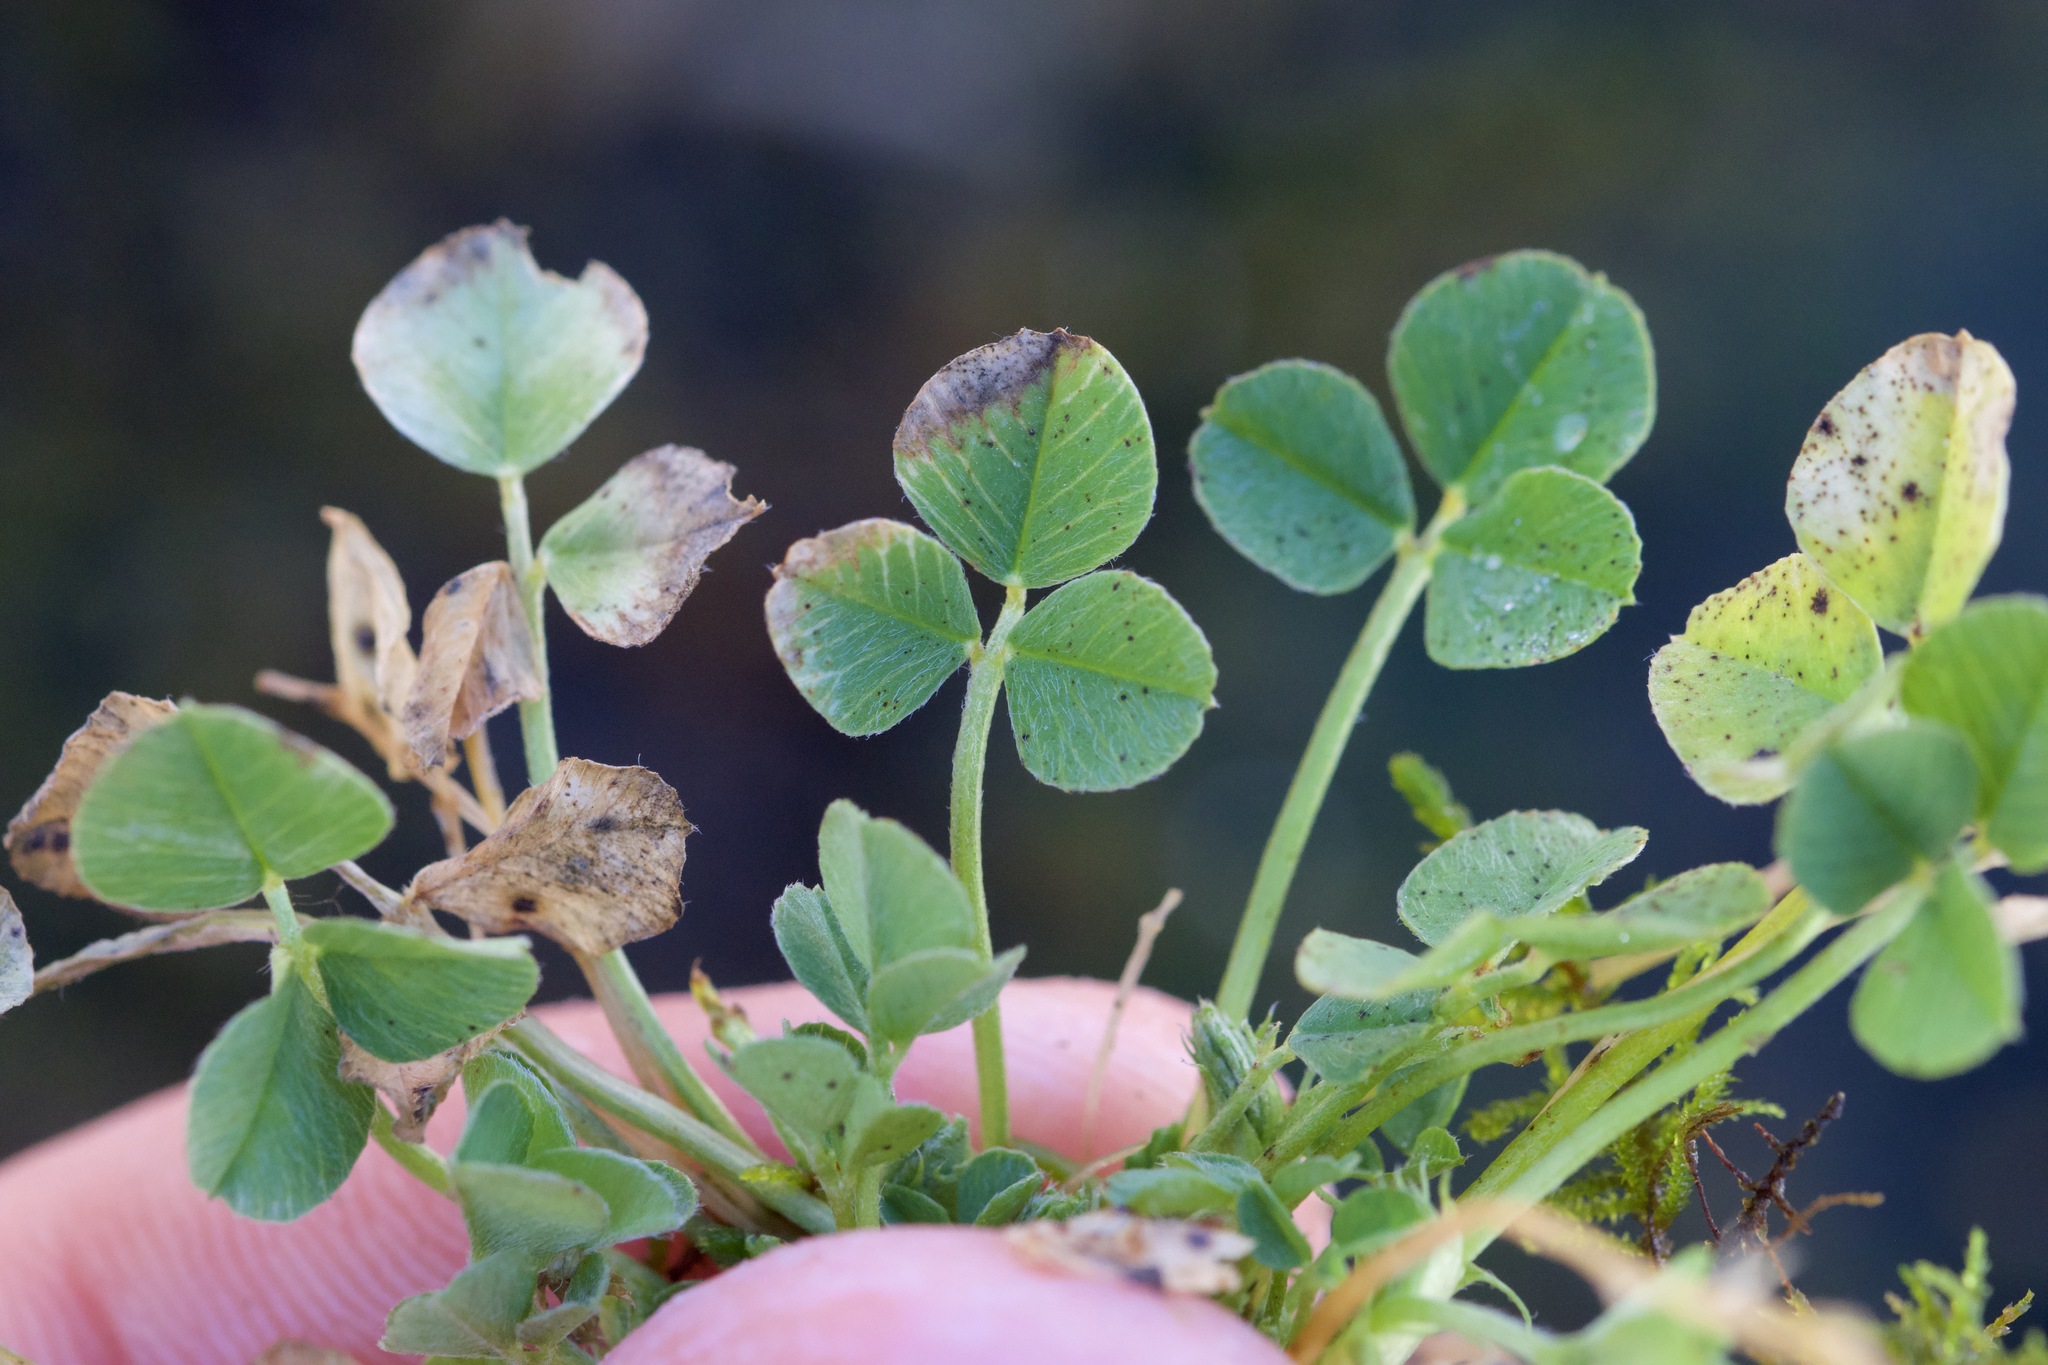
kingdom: Plantae
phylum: Tracheophyta
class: Magnoliopsida
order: Fabales
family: Fabaceae
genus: Medicago
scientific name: Medicago lupulina
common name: Black medick
